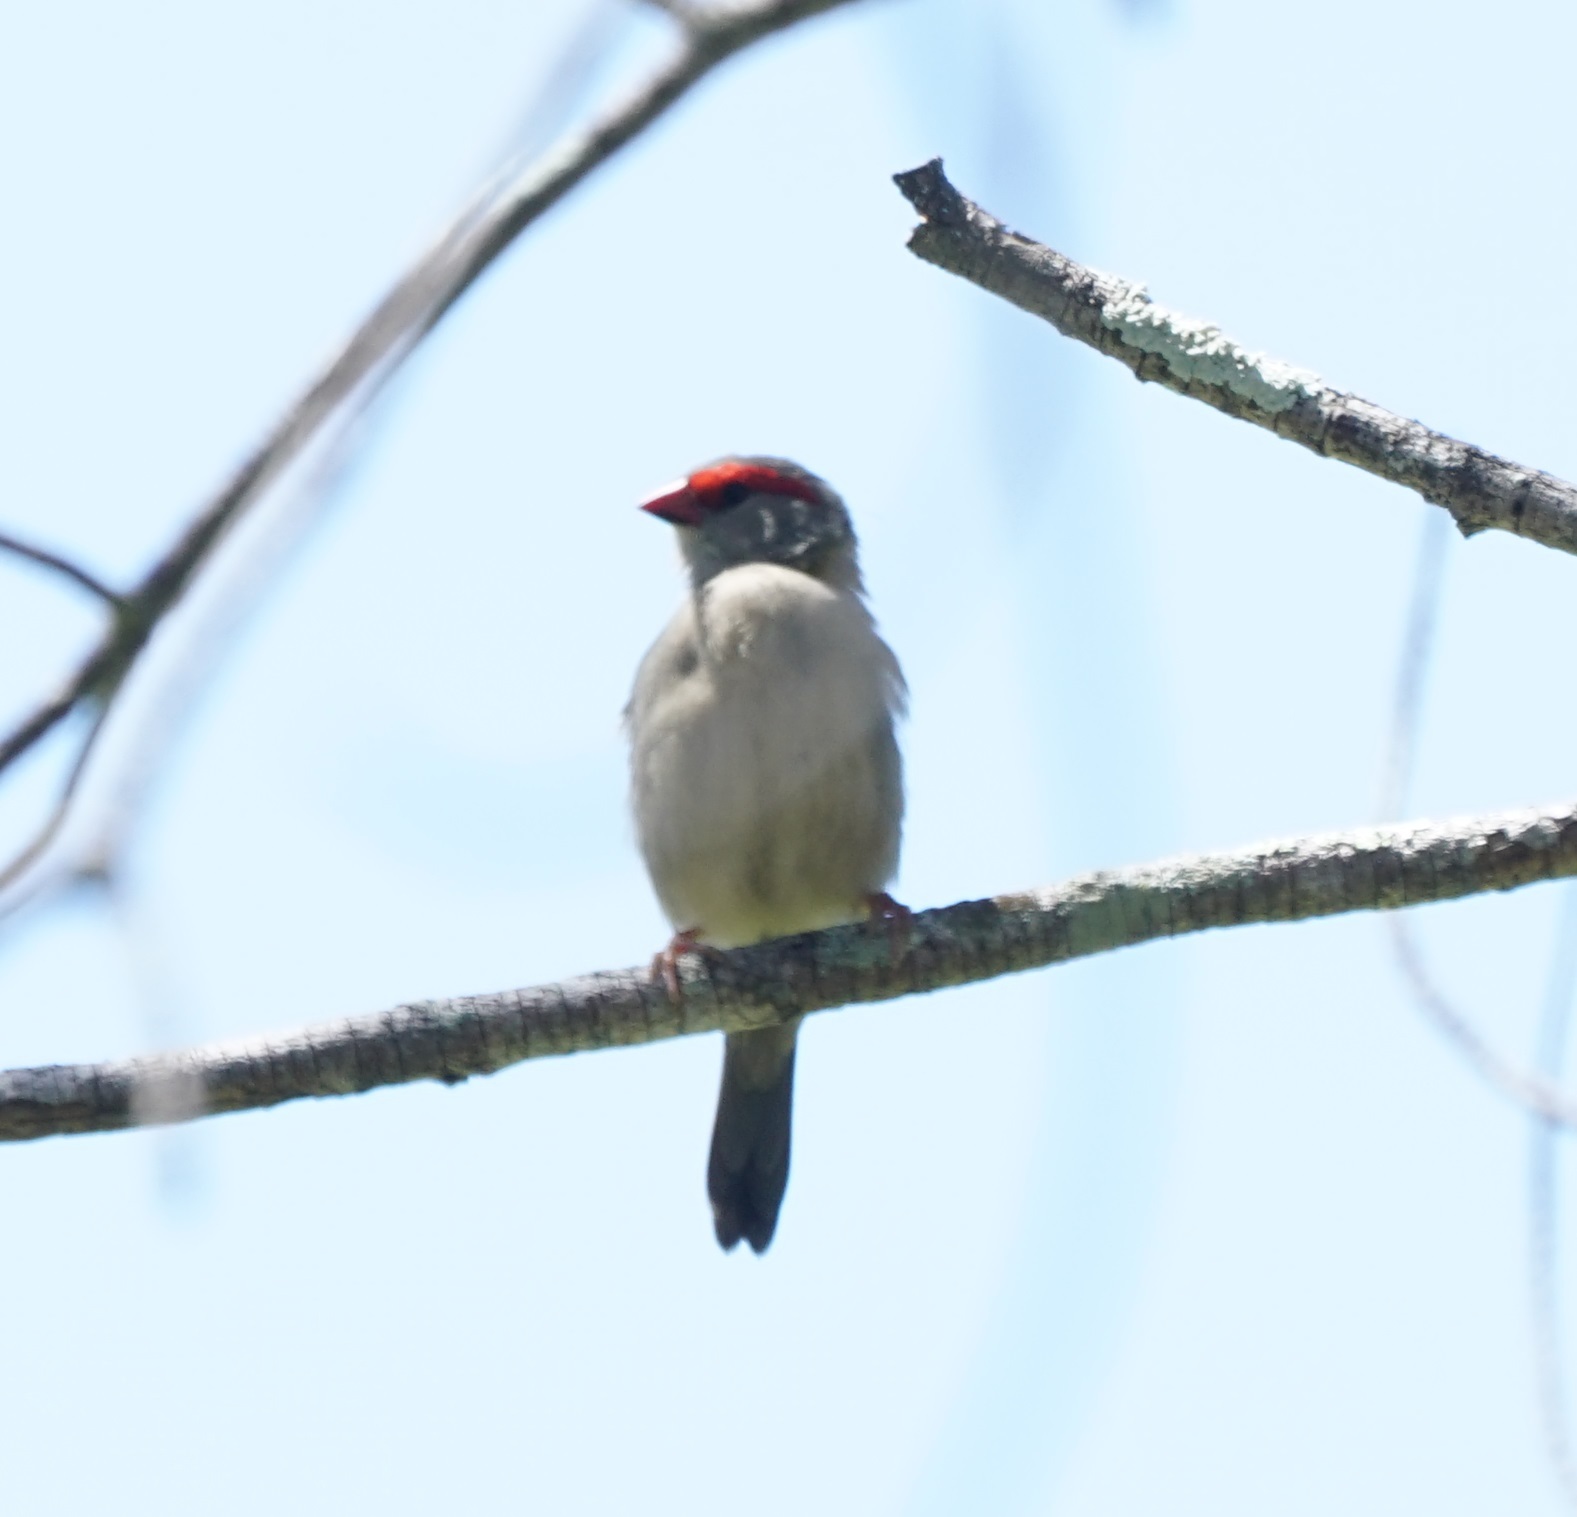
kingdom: Animalia
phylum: Chordata
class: Aves
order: Passeriformes
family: Estrildidae
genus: Neochmia
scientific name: Neochmia temporalis
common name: Red-browed finch
